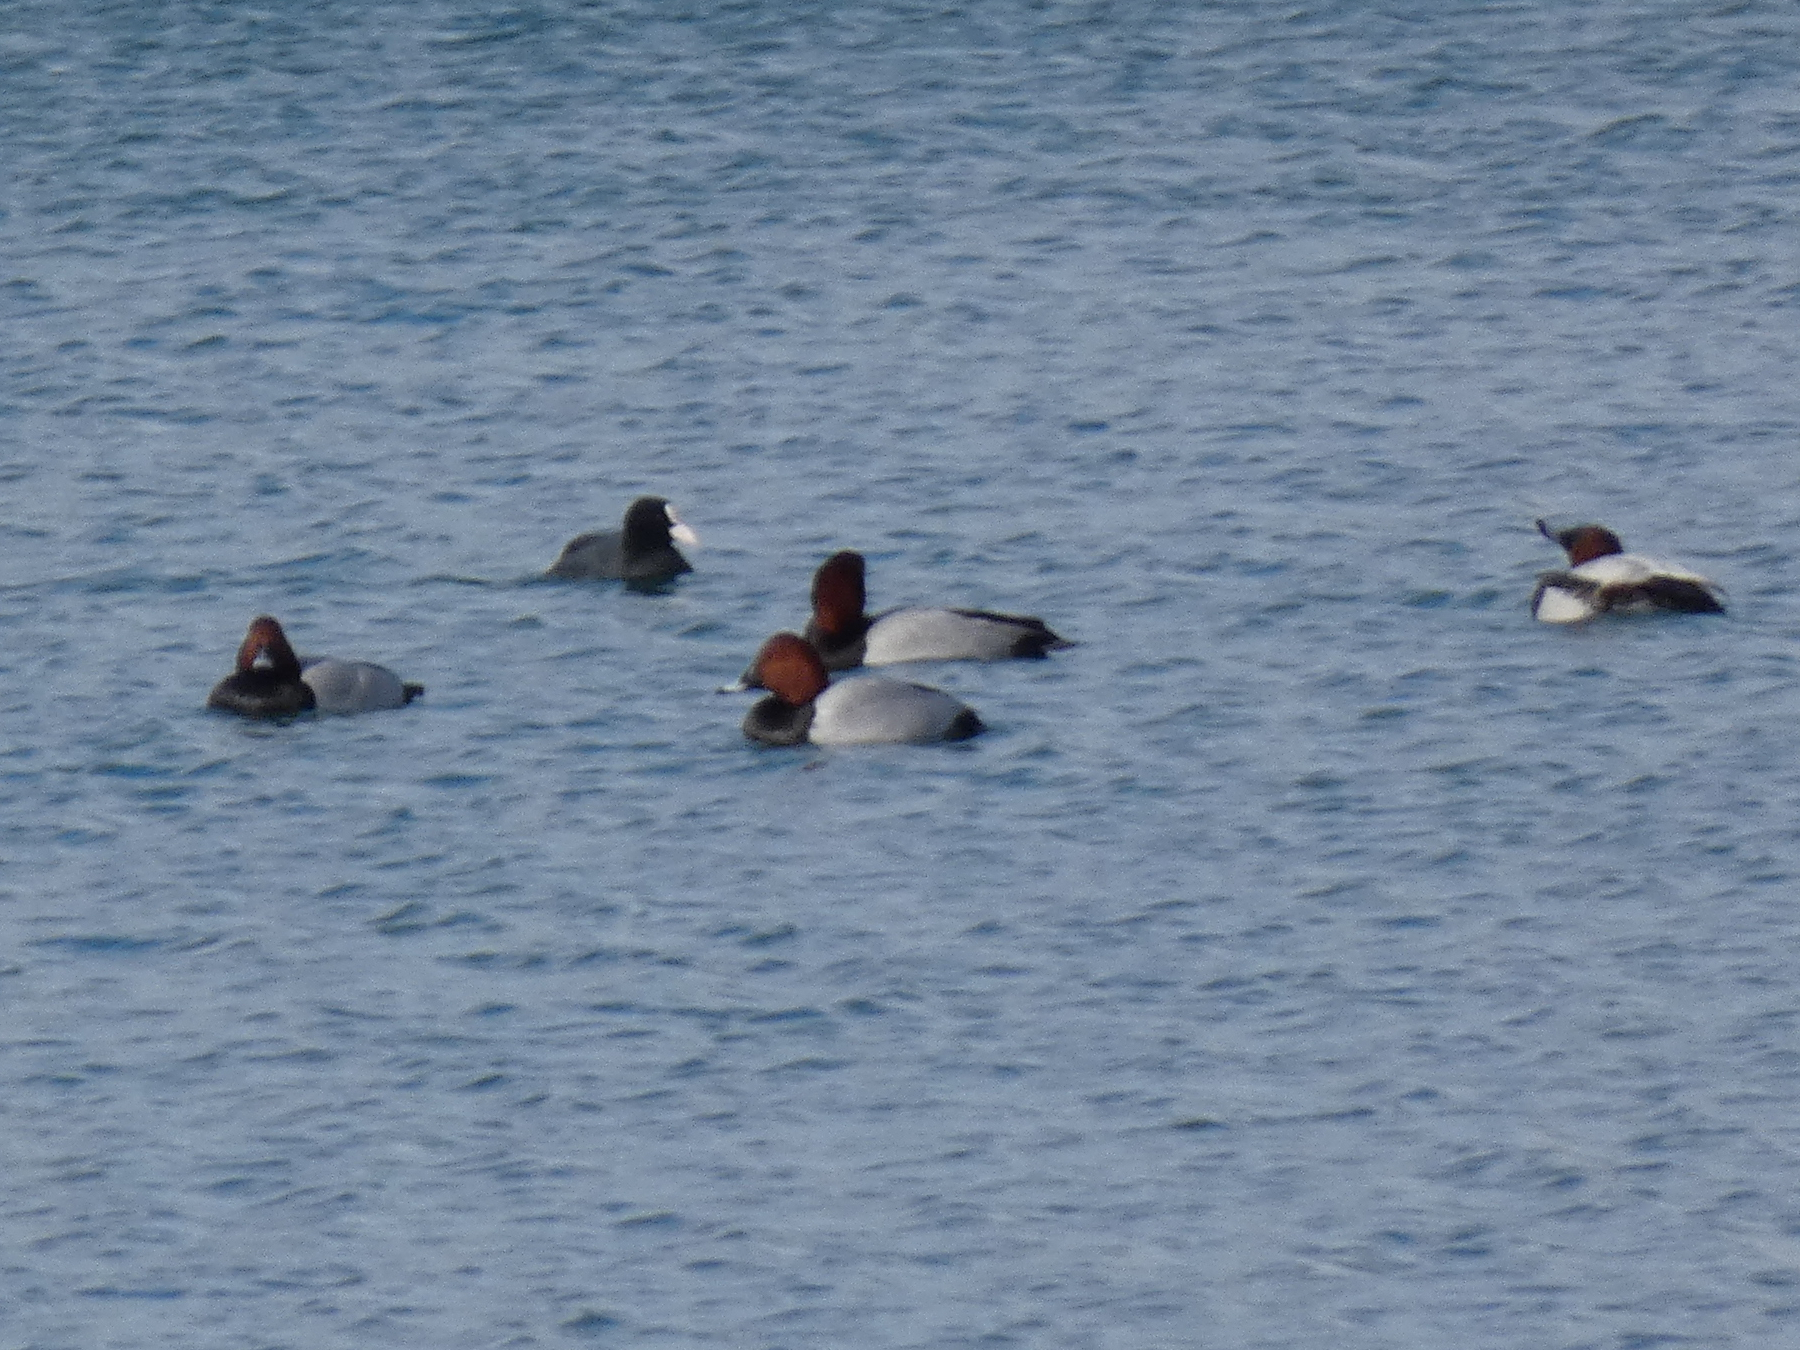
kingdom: Animalia
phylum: Chordata
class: Aves
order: Anseriformes
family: Anatidae
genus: Aythya
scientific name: Aythya ferina
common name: Common pochard
